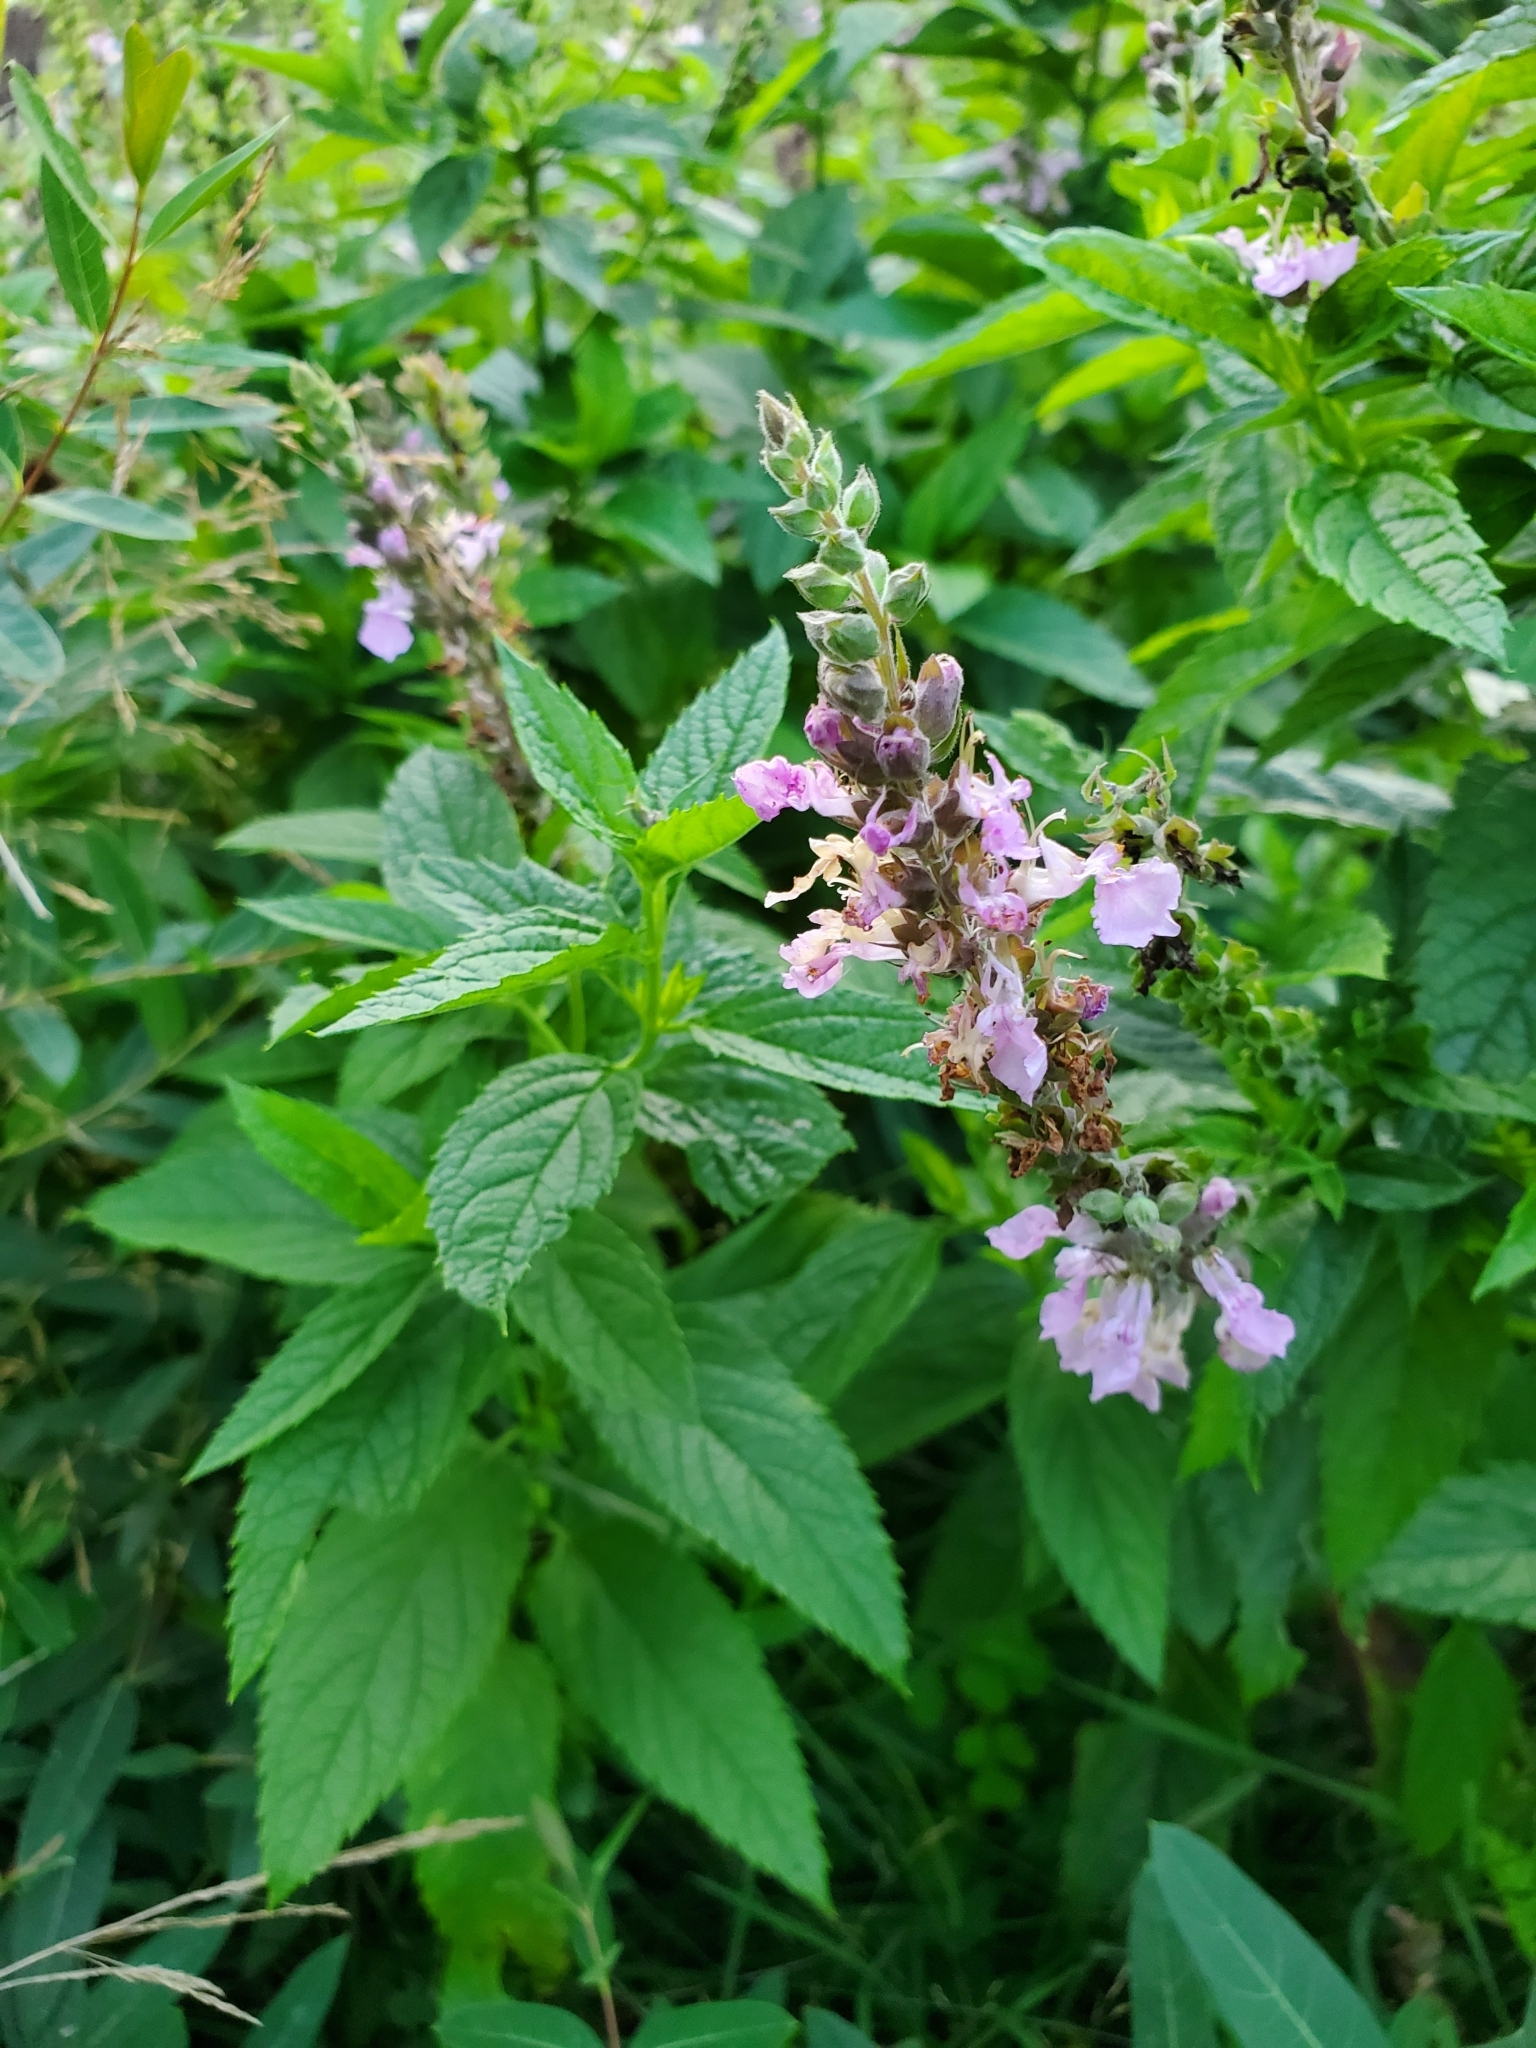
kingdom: Plantae
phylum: Tracheophyta
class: Magnoliopsida
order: Lamiales
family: Lamiaceae
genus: Teucrium
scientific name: Teucrium canadense
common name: American germander
